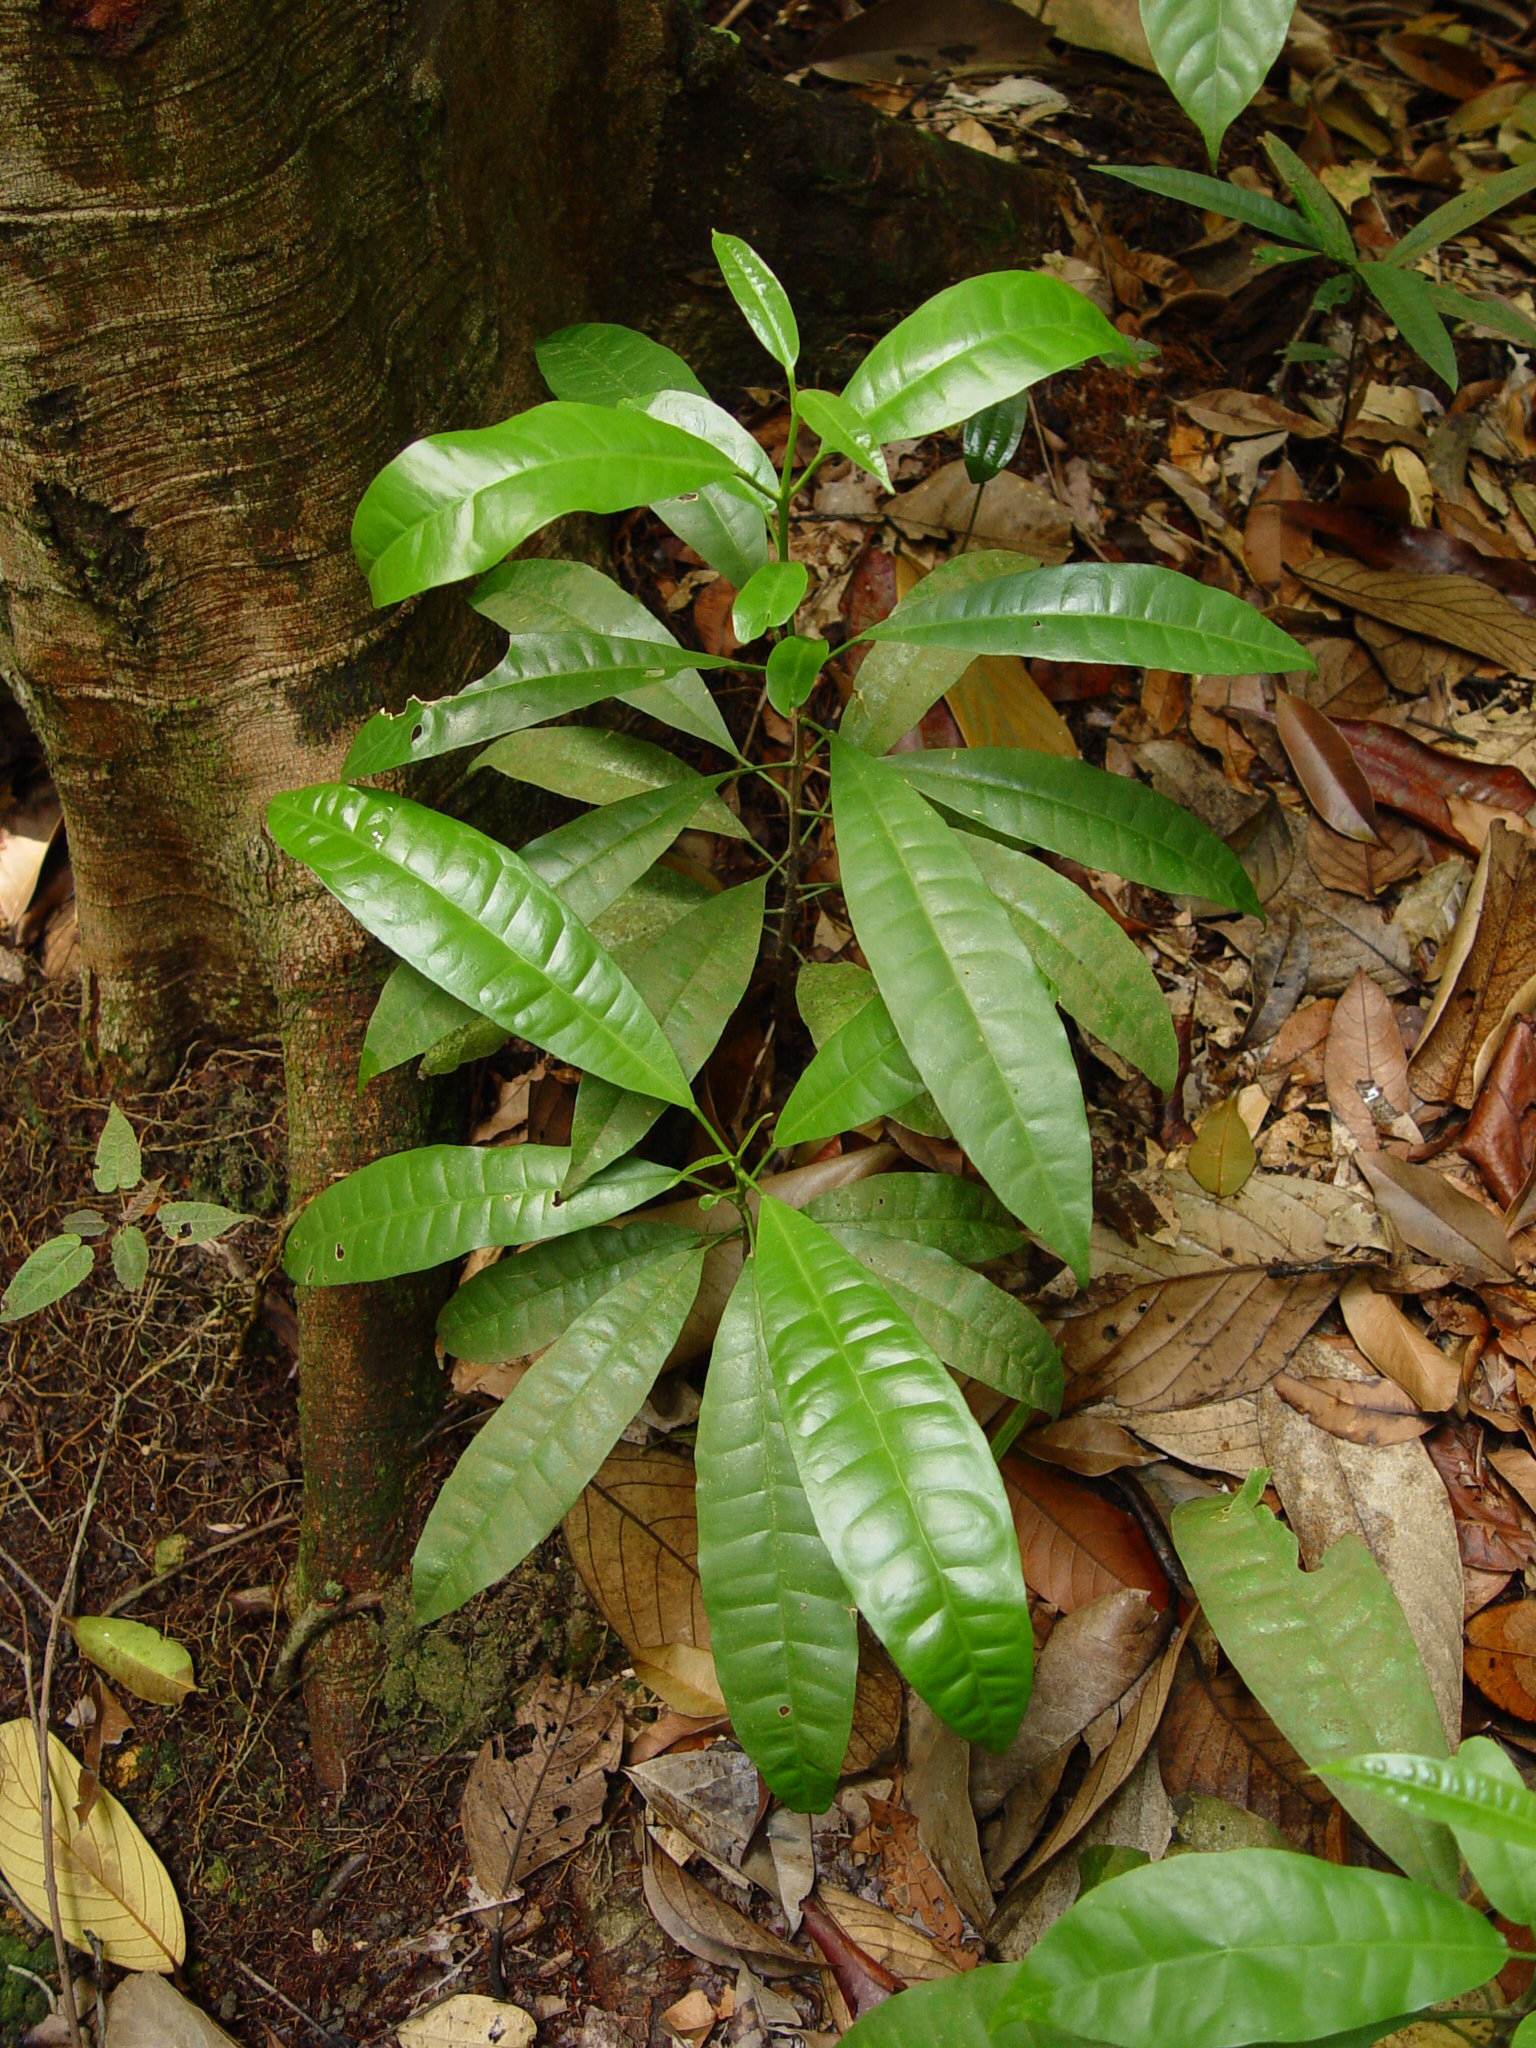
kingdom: Plantae
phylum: Tracheophyta
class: Magnoliopsida
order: Sapindales
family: Rutaceae
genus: Maclurodendron
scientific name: Maclurodendron porteri
